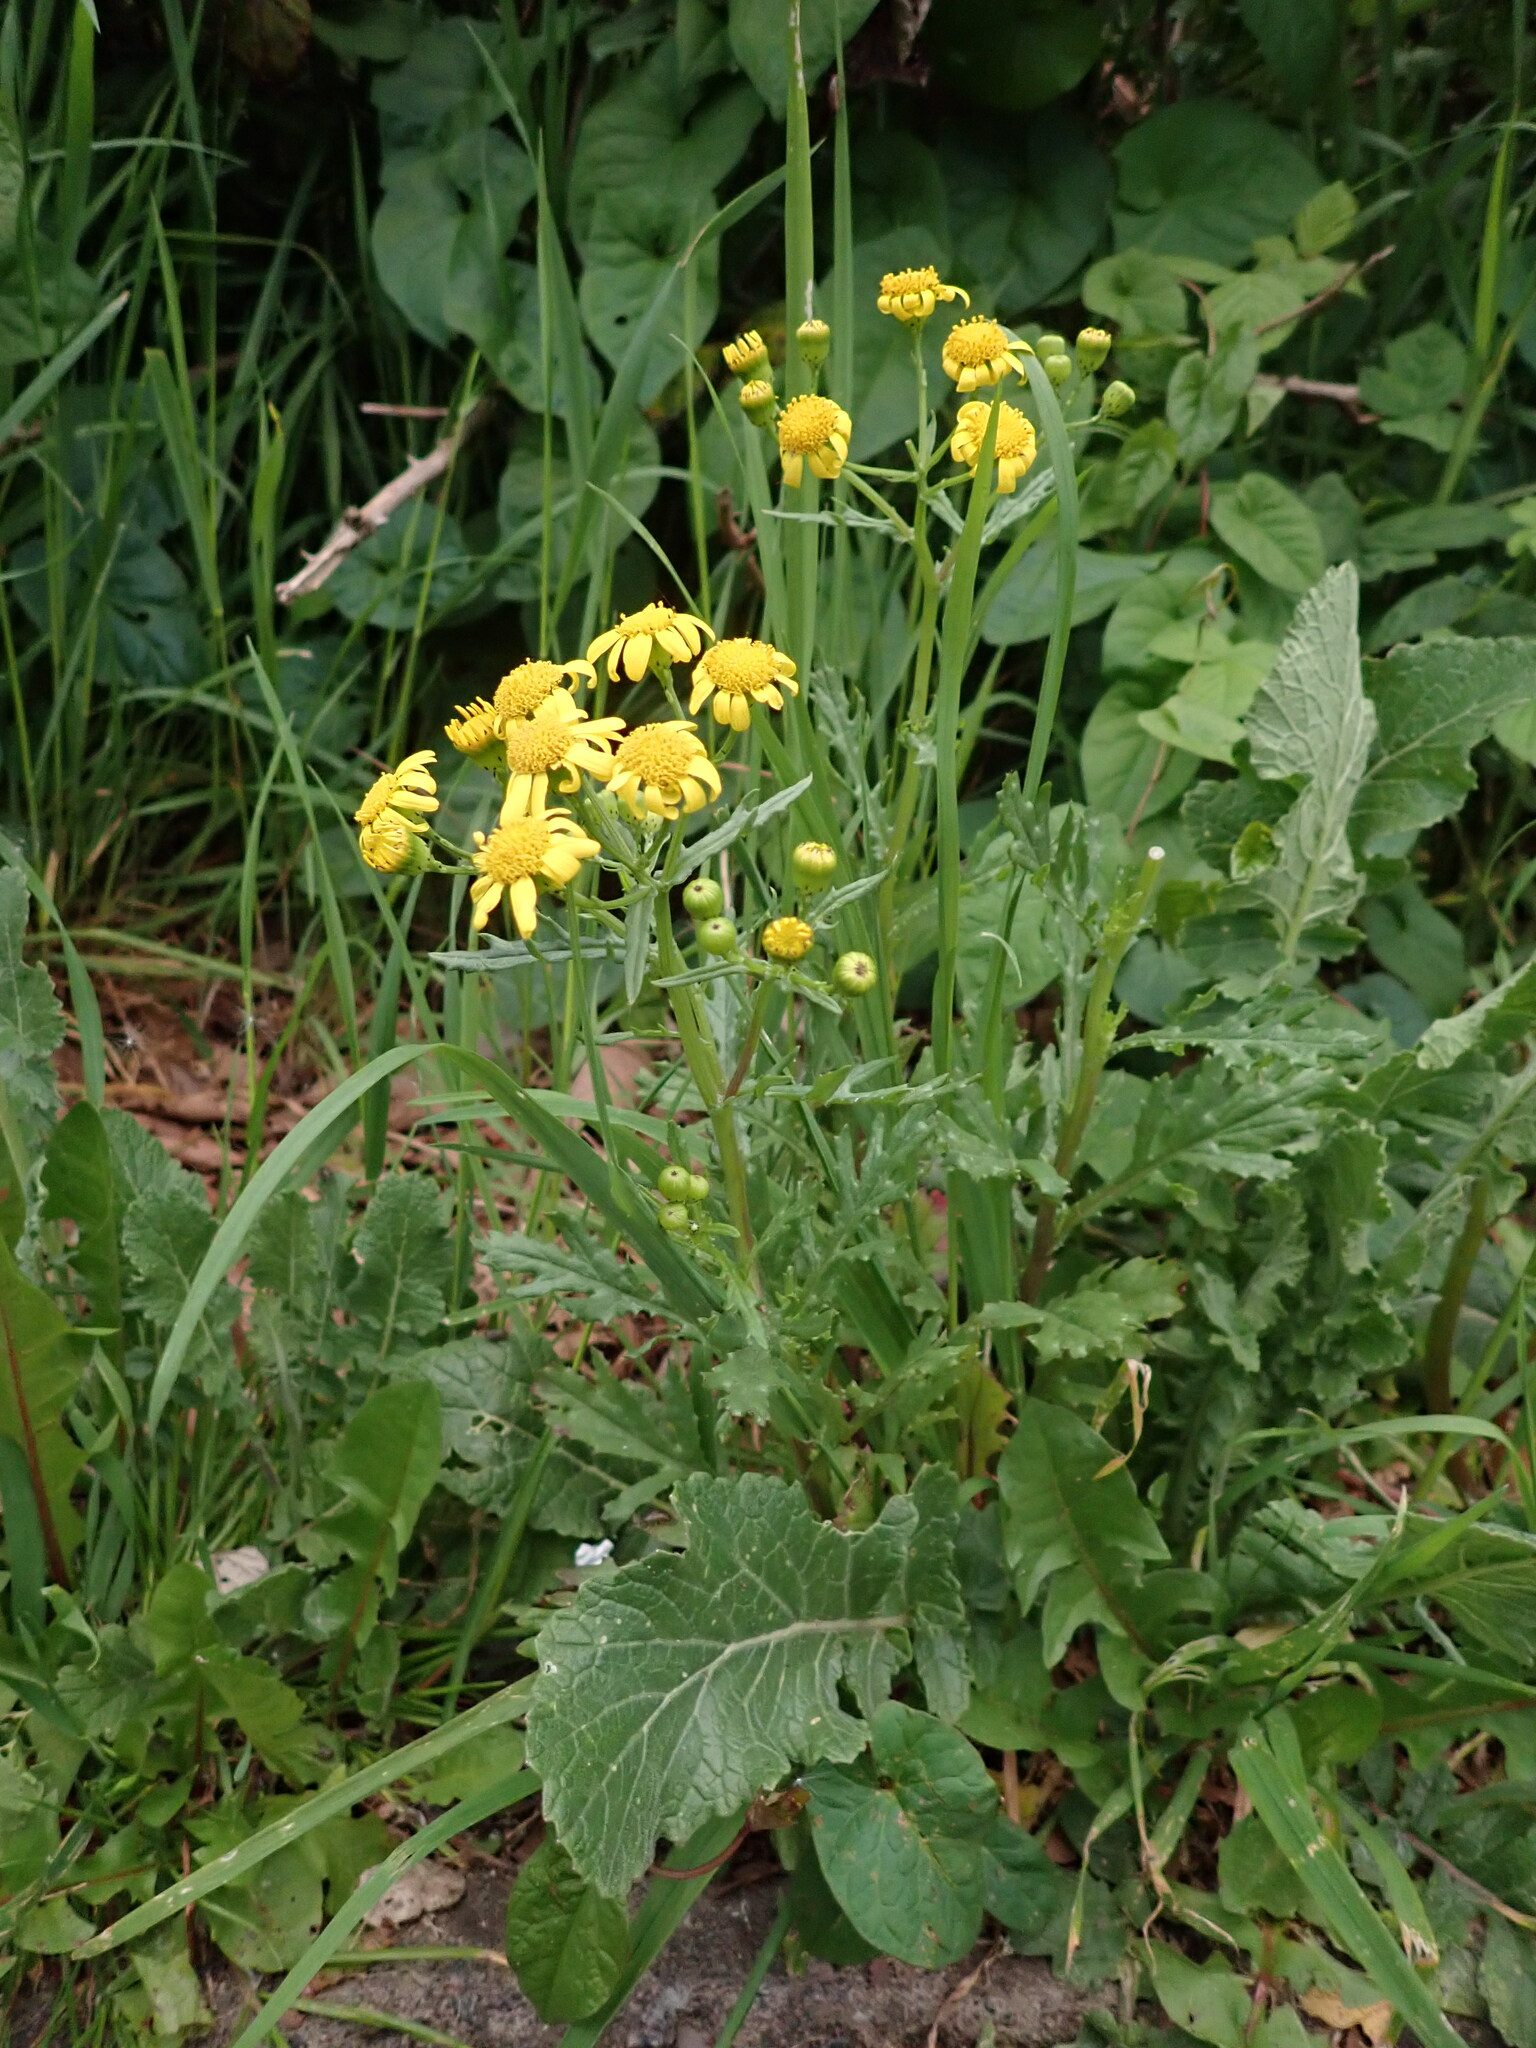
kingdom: Plantae
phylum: Tracheophyta
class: Magnoliopsida
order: Asterales
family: Asteraceae
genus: Senecio
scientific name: Senecio squalidus
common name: Oxford ragwort
